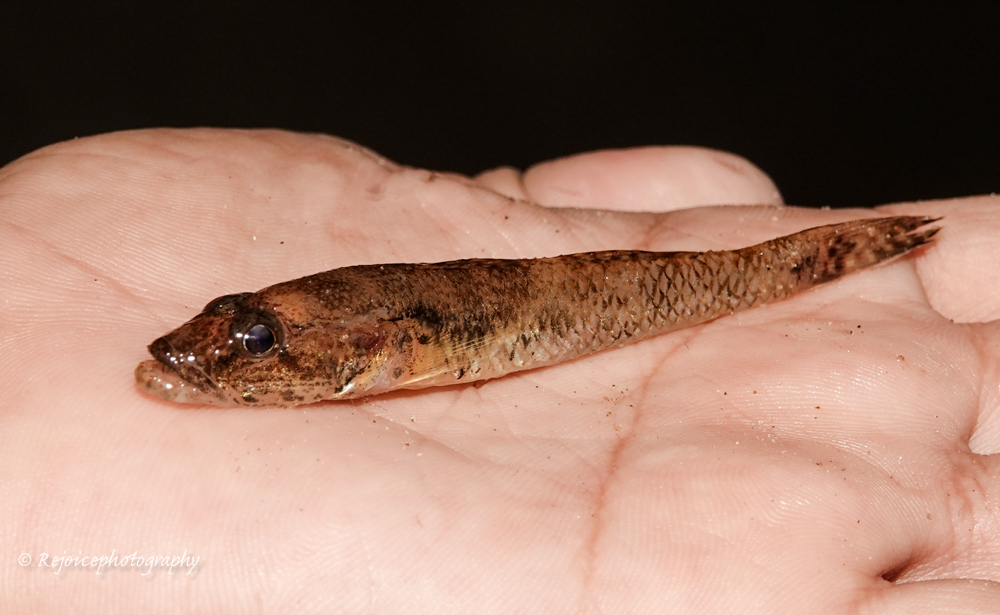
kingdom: Animalia
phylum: Chordata
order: Perciformes
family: Gobiidae
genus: Glossogobius
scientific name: Glossogobius giuris
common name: Tank goby
